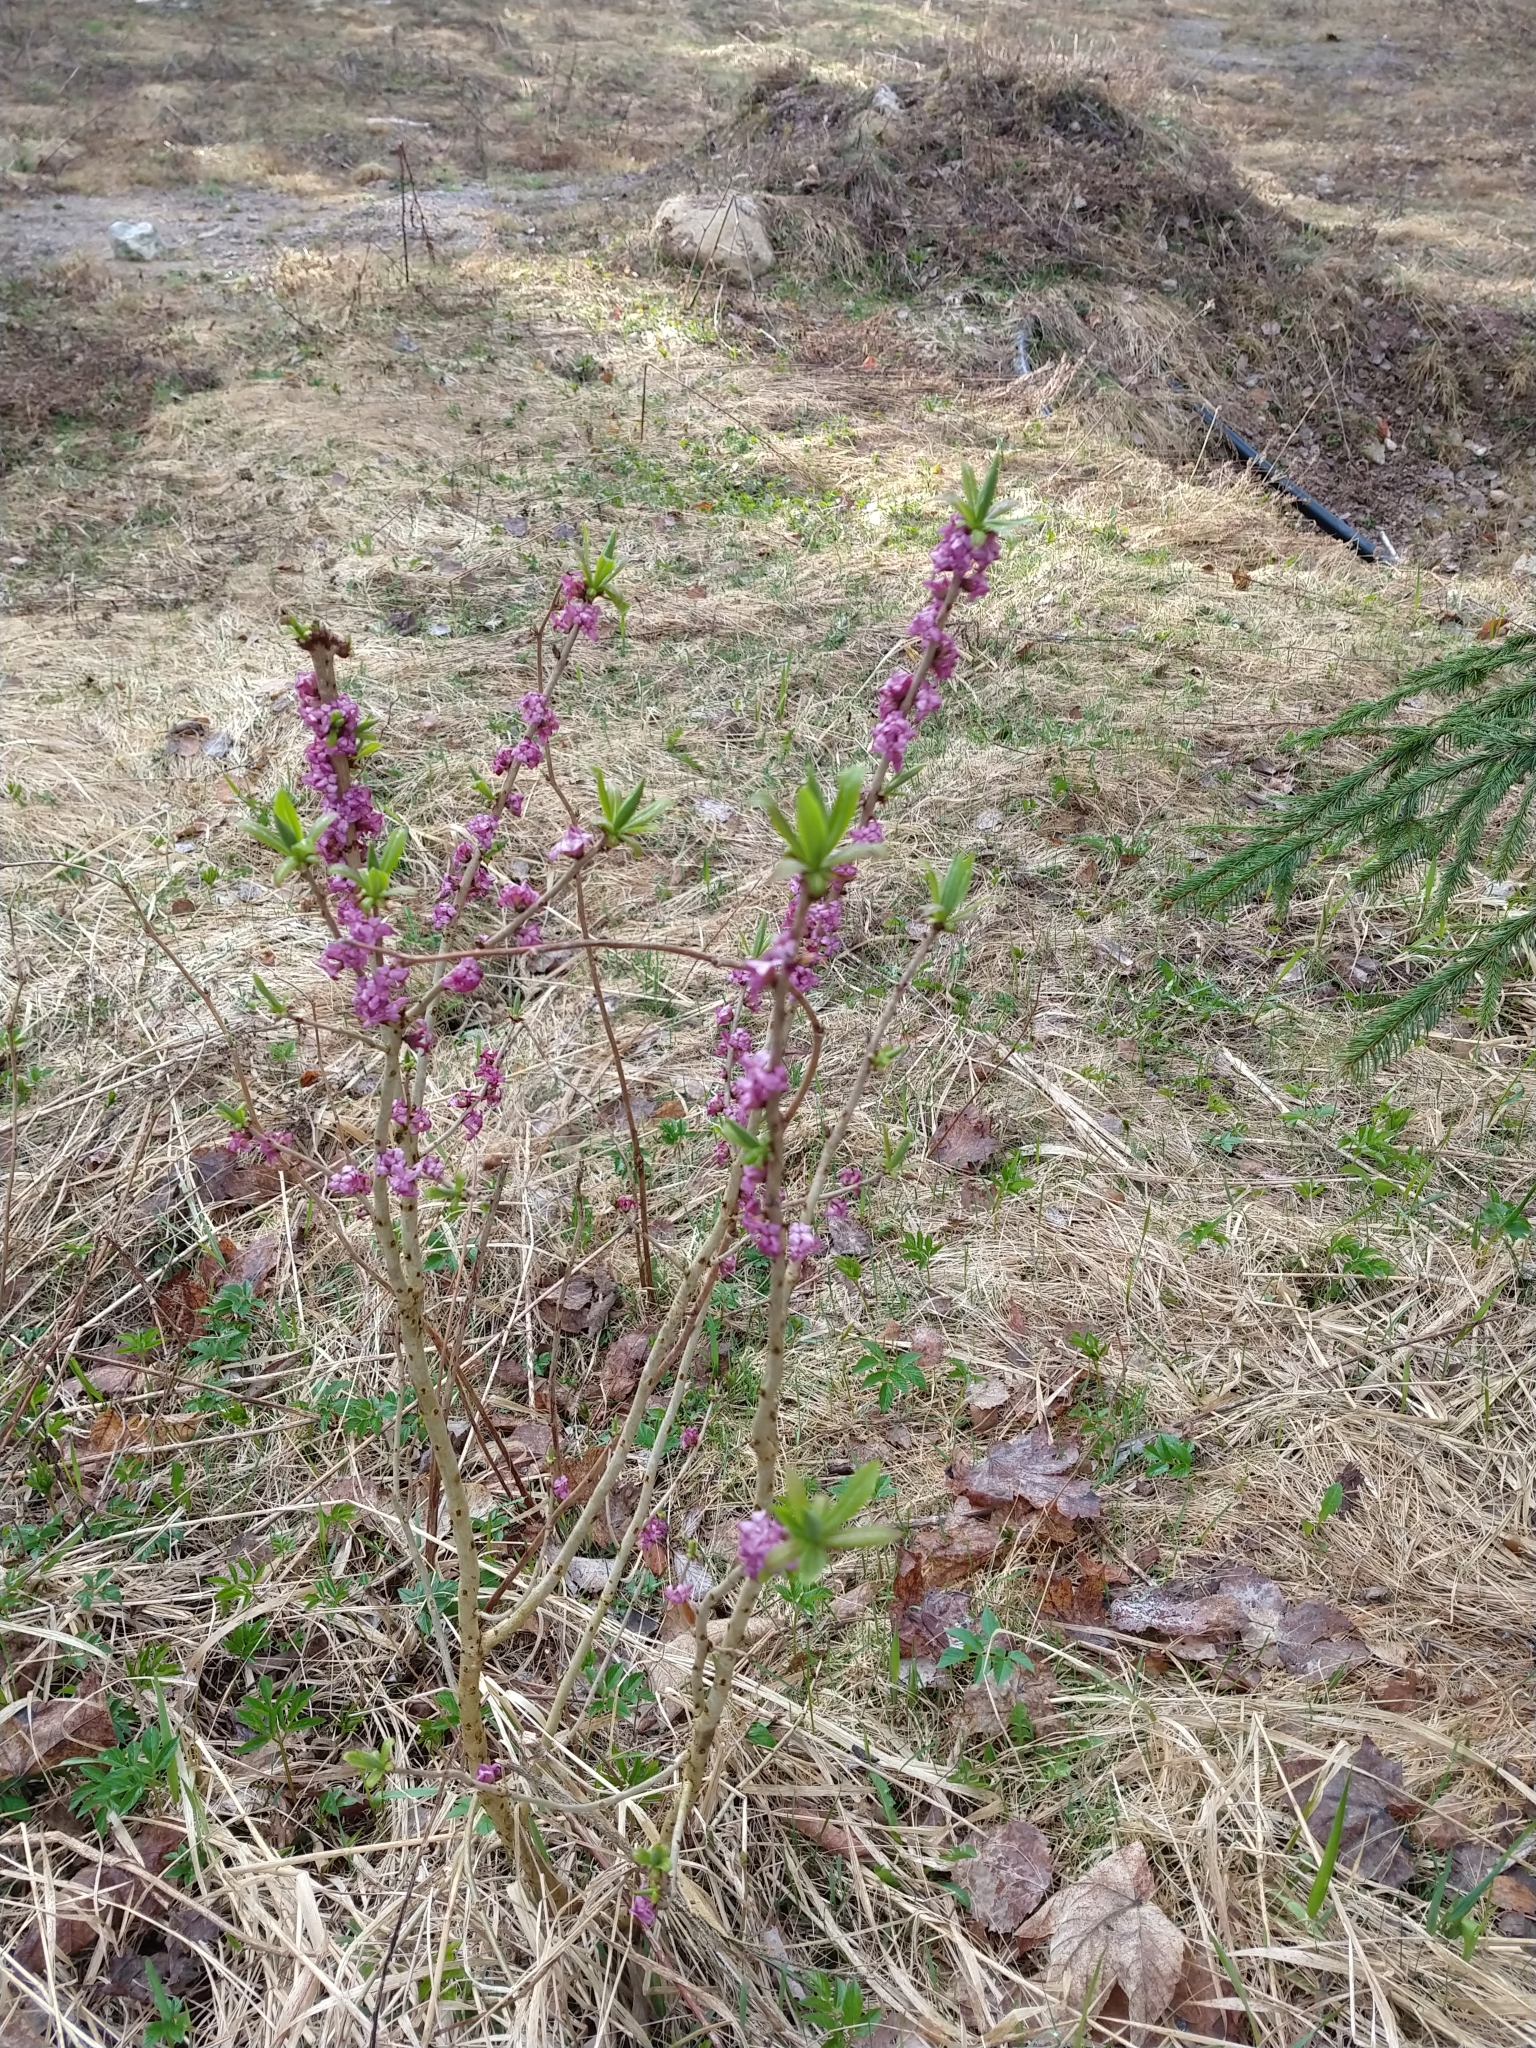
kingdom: Plantae
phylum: Tracheophyta
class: Magnoliopsida
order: Malvales
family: Thymelaeaceae
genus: Daphne
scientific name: Daphne mezereum
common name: Mezereon
